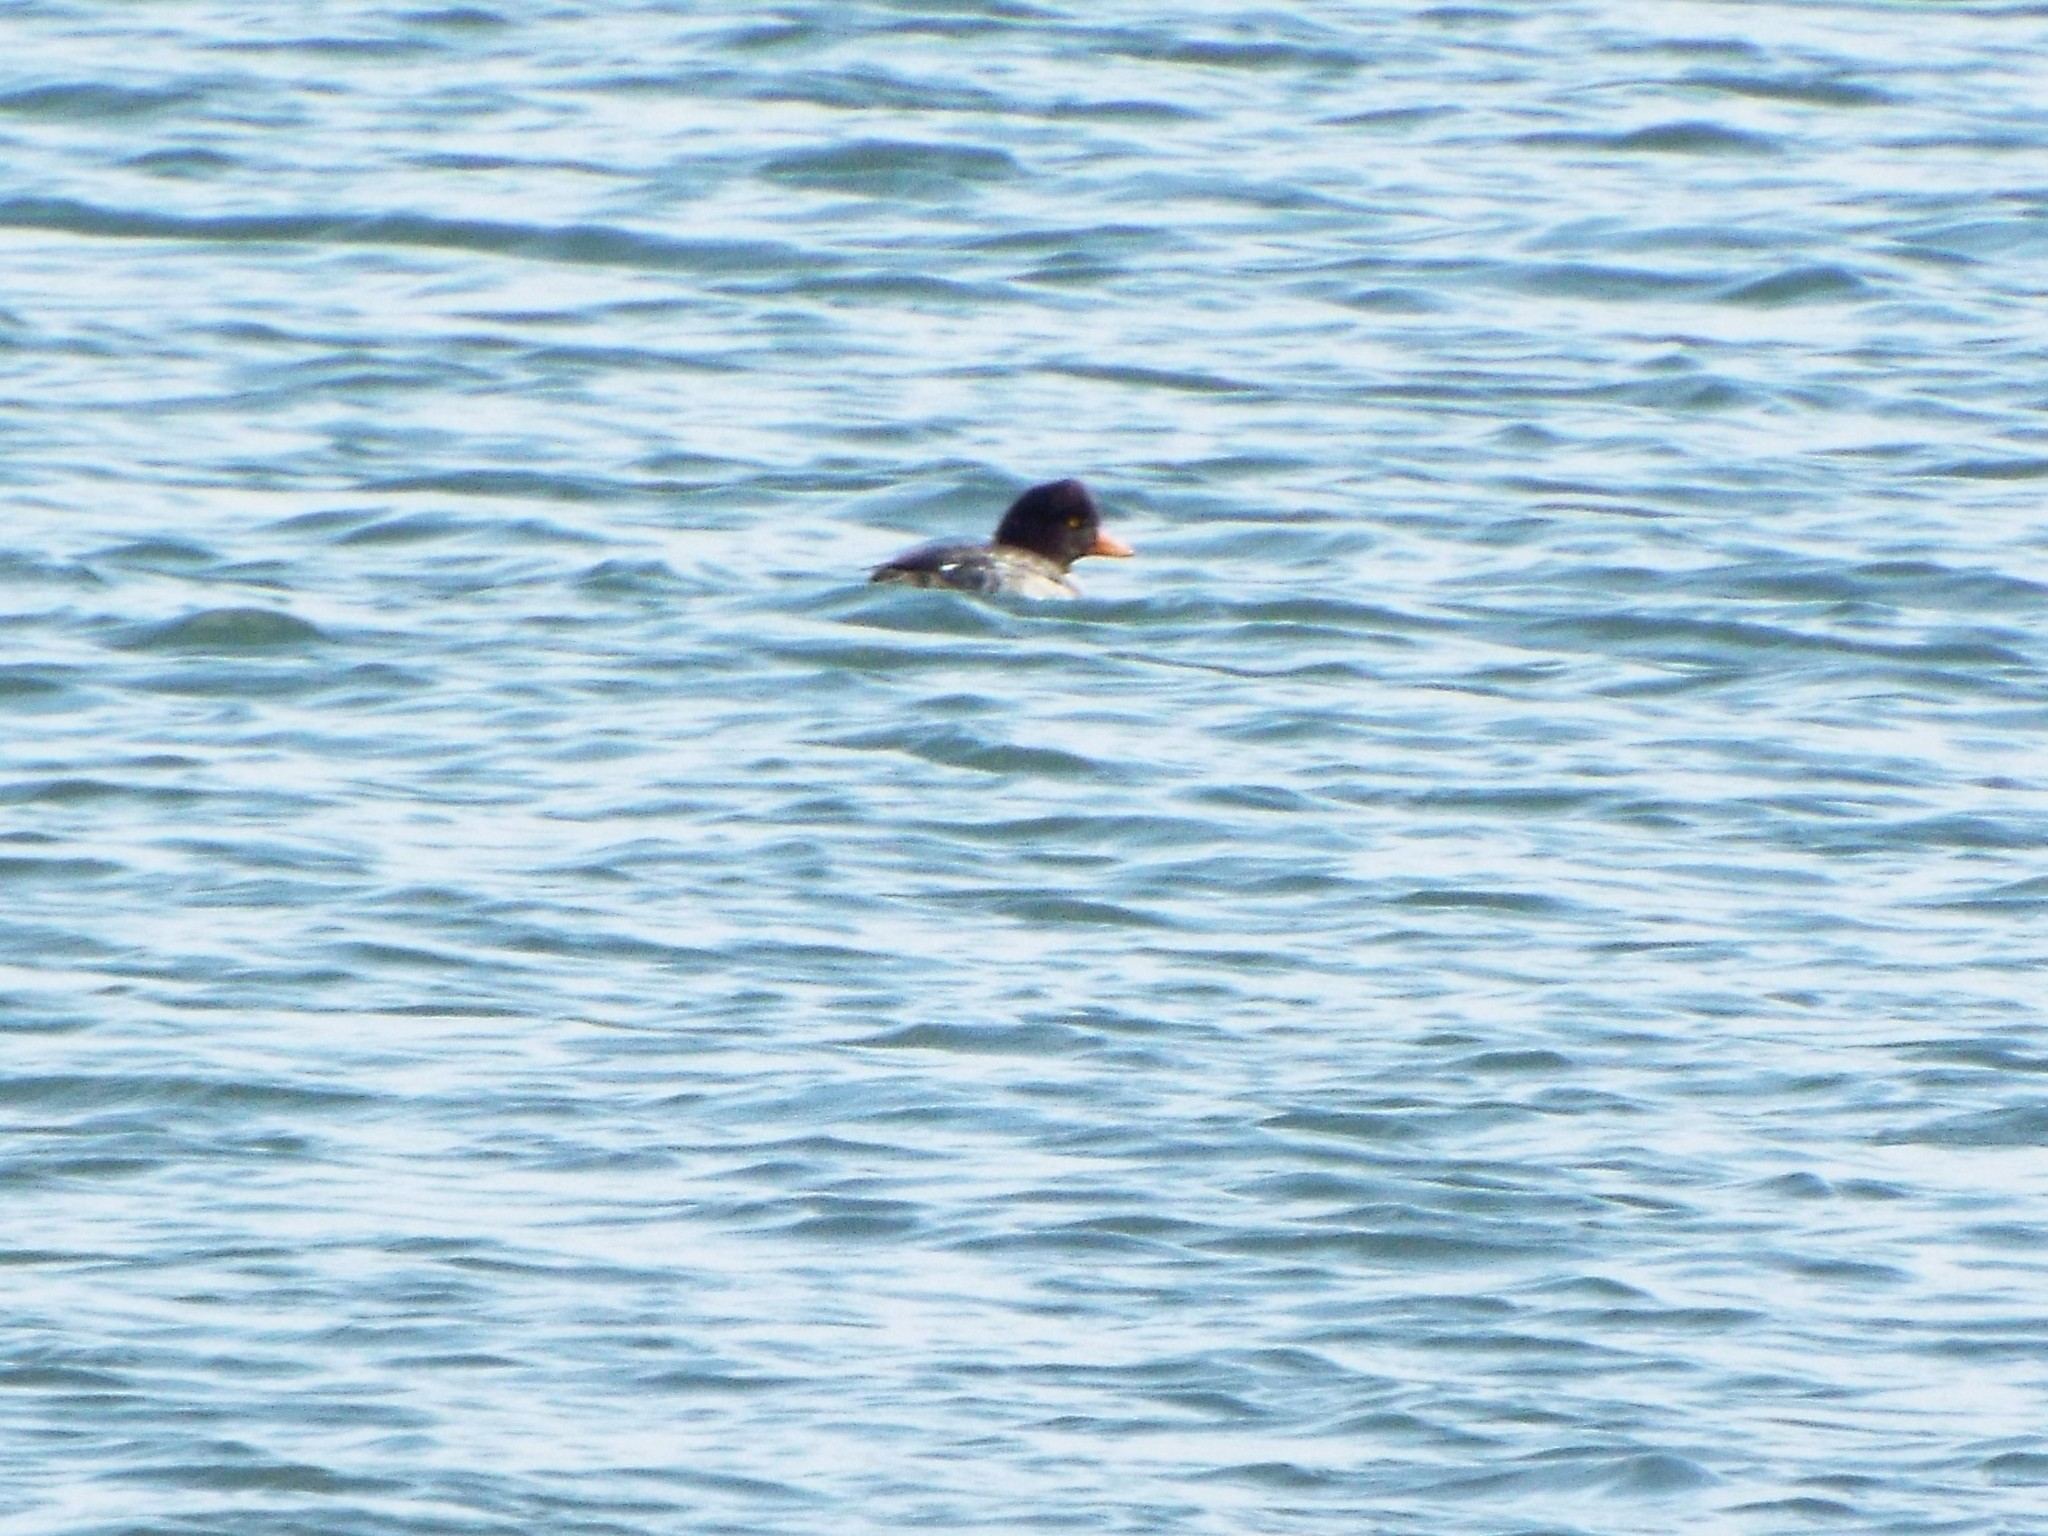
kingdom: Animalia
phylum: Chordata
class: Aves
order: Anseriformes
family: Anatidae
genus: Bucephala
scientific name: Bucephala islandica
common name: Barrow's goldeneye
